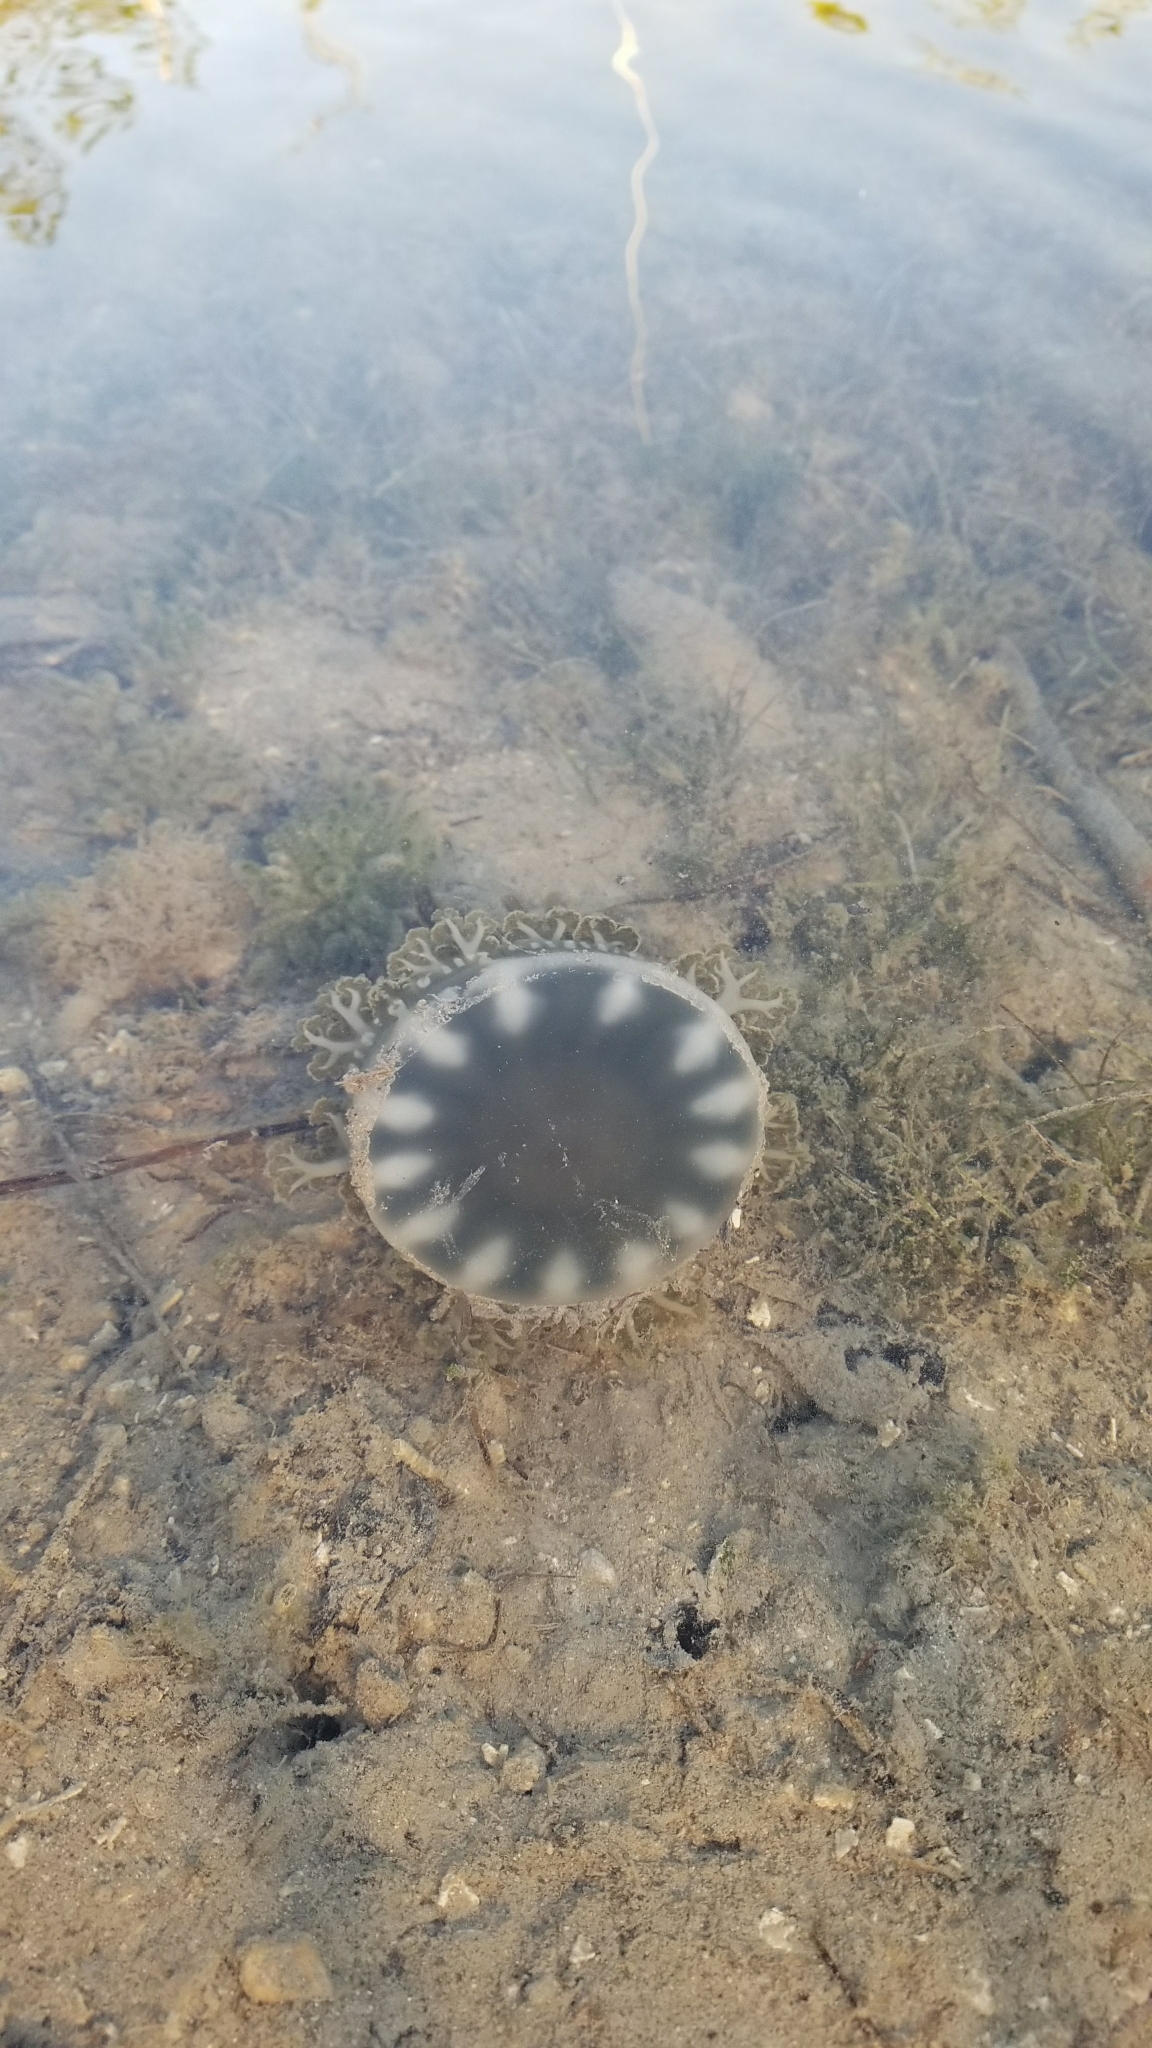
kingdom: Animalia
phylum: Cnidaria
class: Scyphozoa
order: Rhizostomeae
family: Cassiopeidae
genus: Cassiopea
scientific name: Cassiopea andromeda
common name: Upside-down jellyfish
